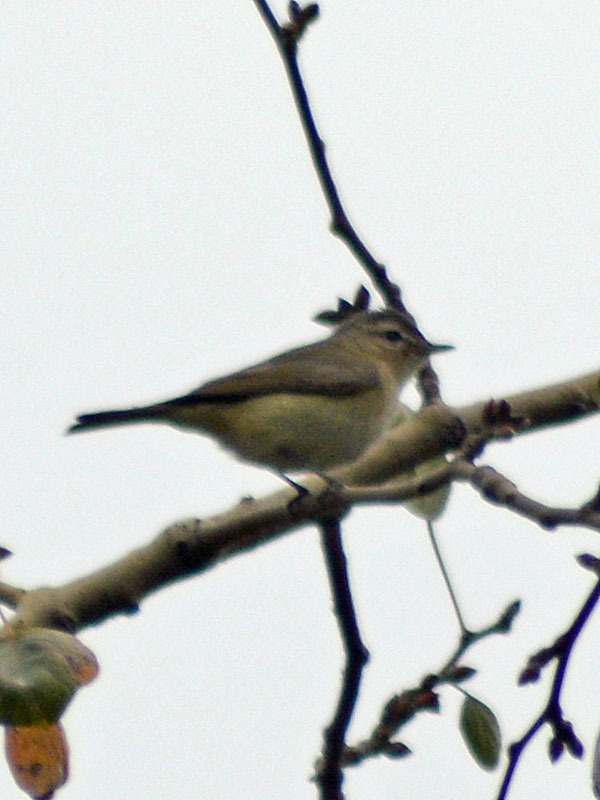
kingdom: Animalia
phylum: Chordata
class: Aves
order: Passeriformes
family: Vireonidae
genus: Vireo
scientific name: Vireo gilvus
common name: Warbling vireo
